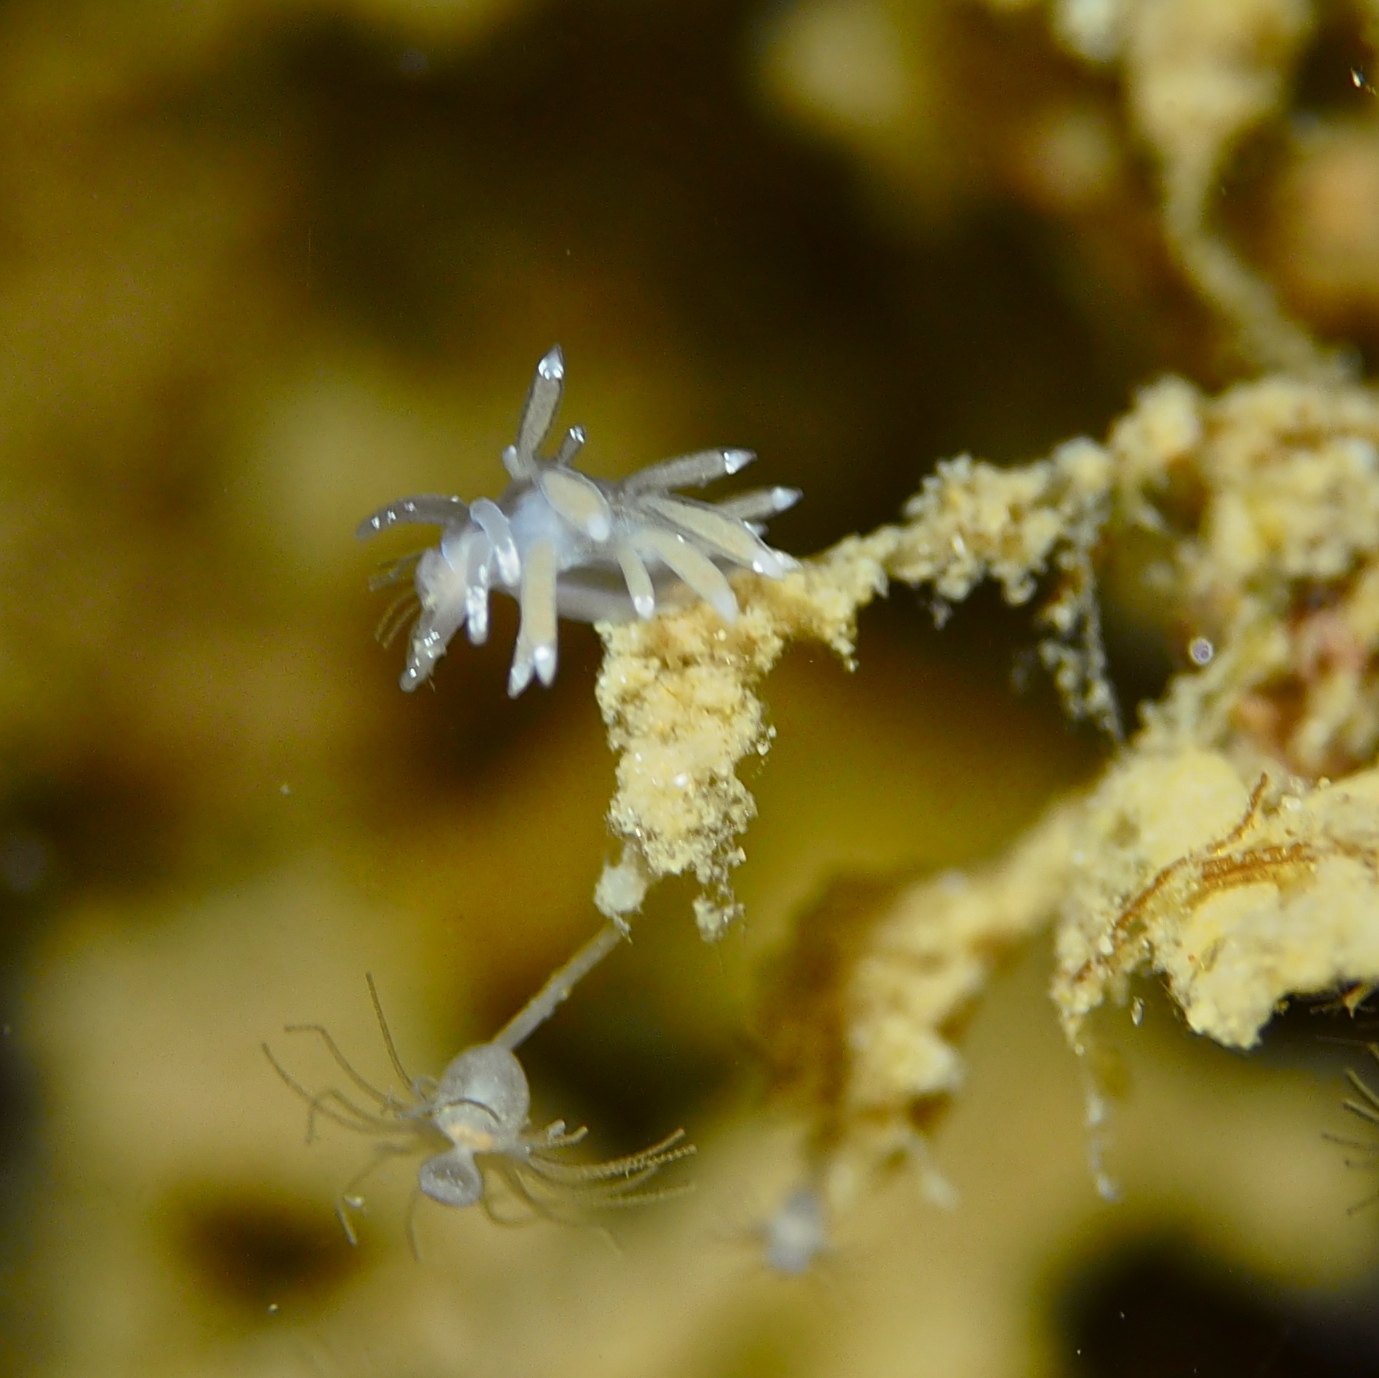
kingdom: Animalia
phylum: Mollusca
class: Gastropoda
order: Nudibranchia
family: Coryphellidae
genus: Coryphella
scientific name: Coryphella gracilis
